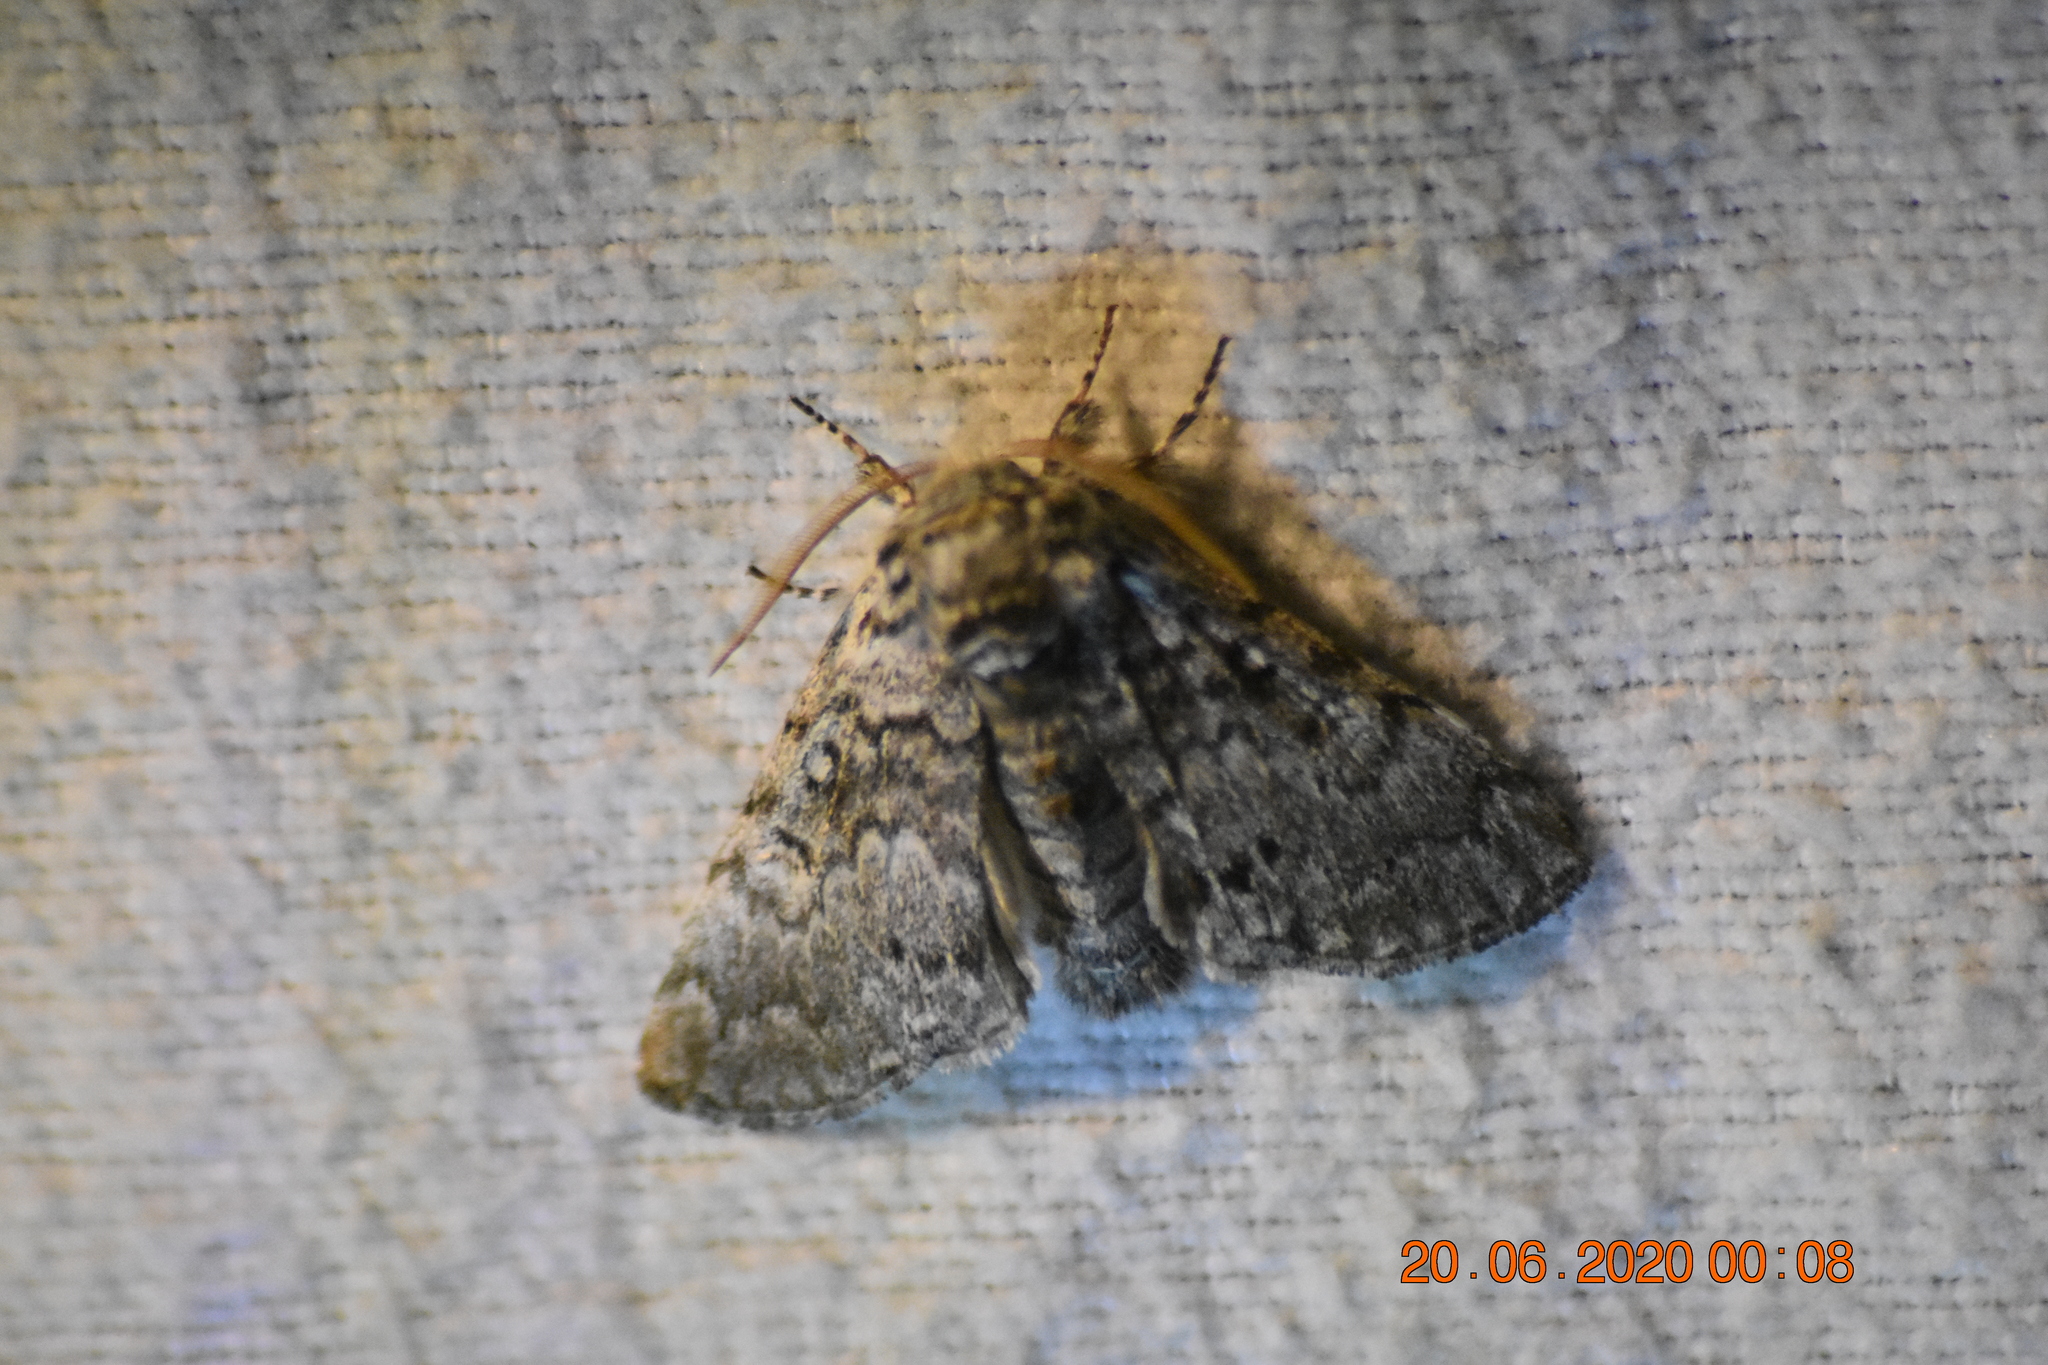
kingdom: Animalia
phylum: Arthropoda
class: Insecta
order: Lepidoptera
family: Noctuidae
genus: Colocasia
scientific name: Colocasia propinquilinea
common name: Close-banded demas
